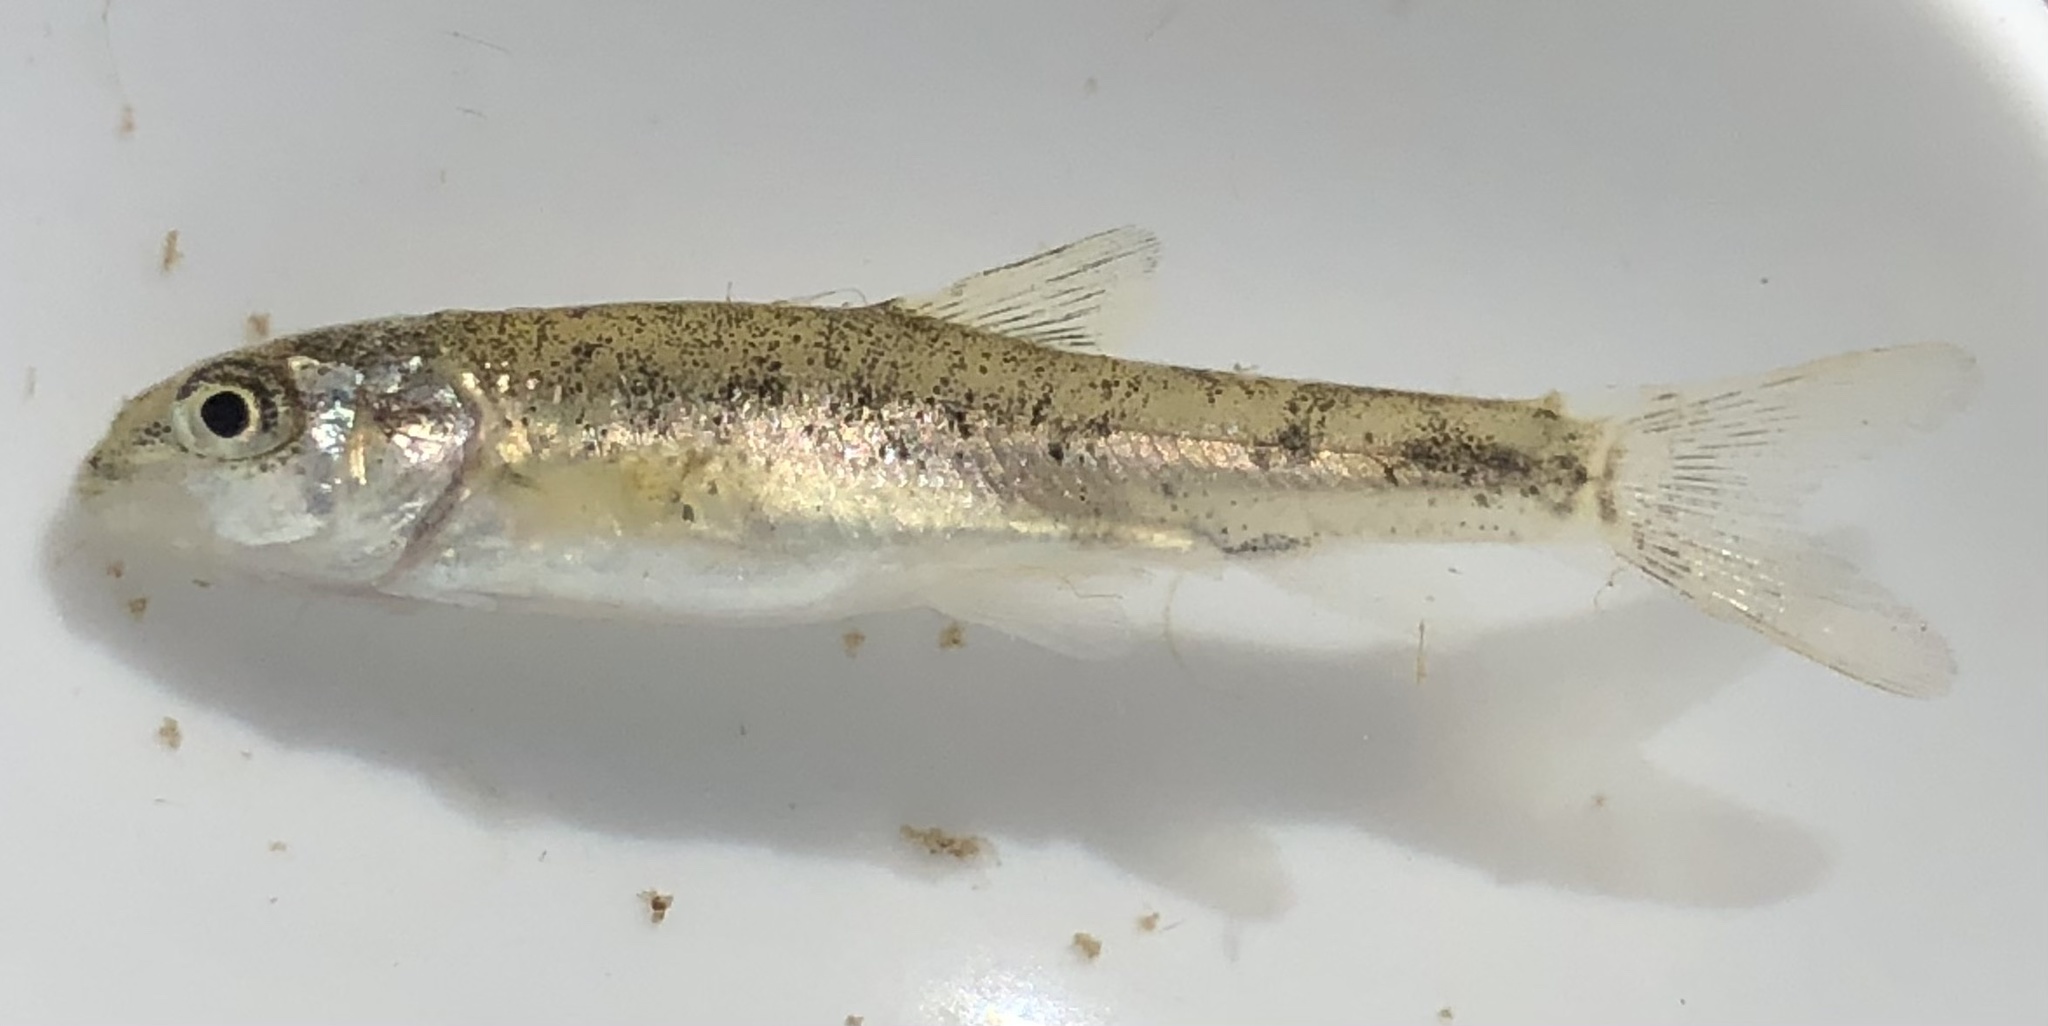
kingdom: Animalia
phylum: Chordata
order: Cypriniformes
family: Cyprinidae
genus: Barbus
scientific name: Barbus meridionalis
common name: Mediterranean barbel
